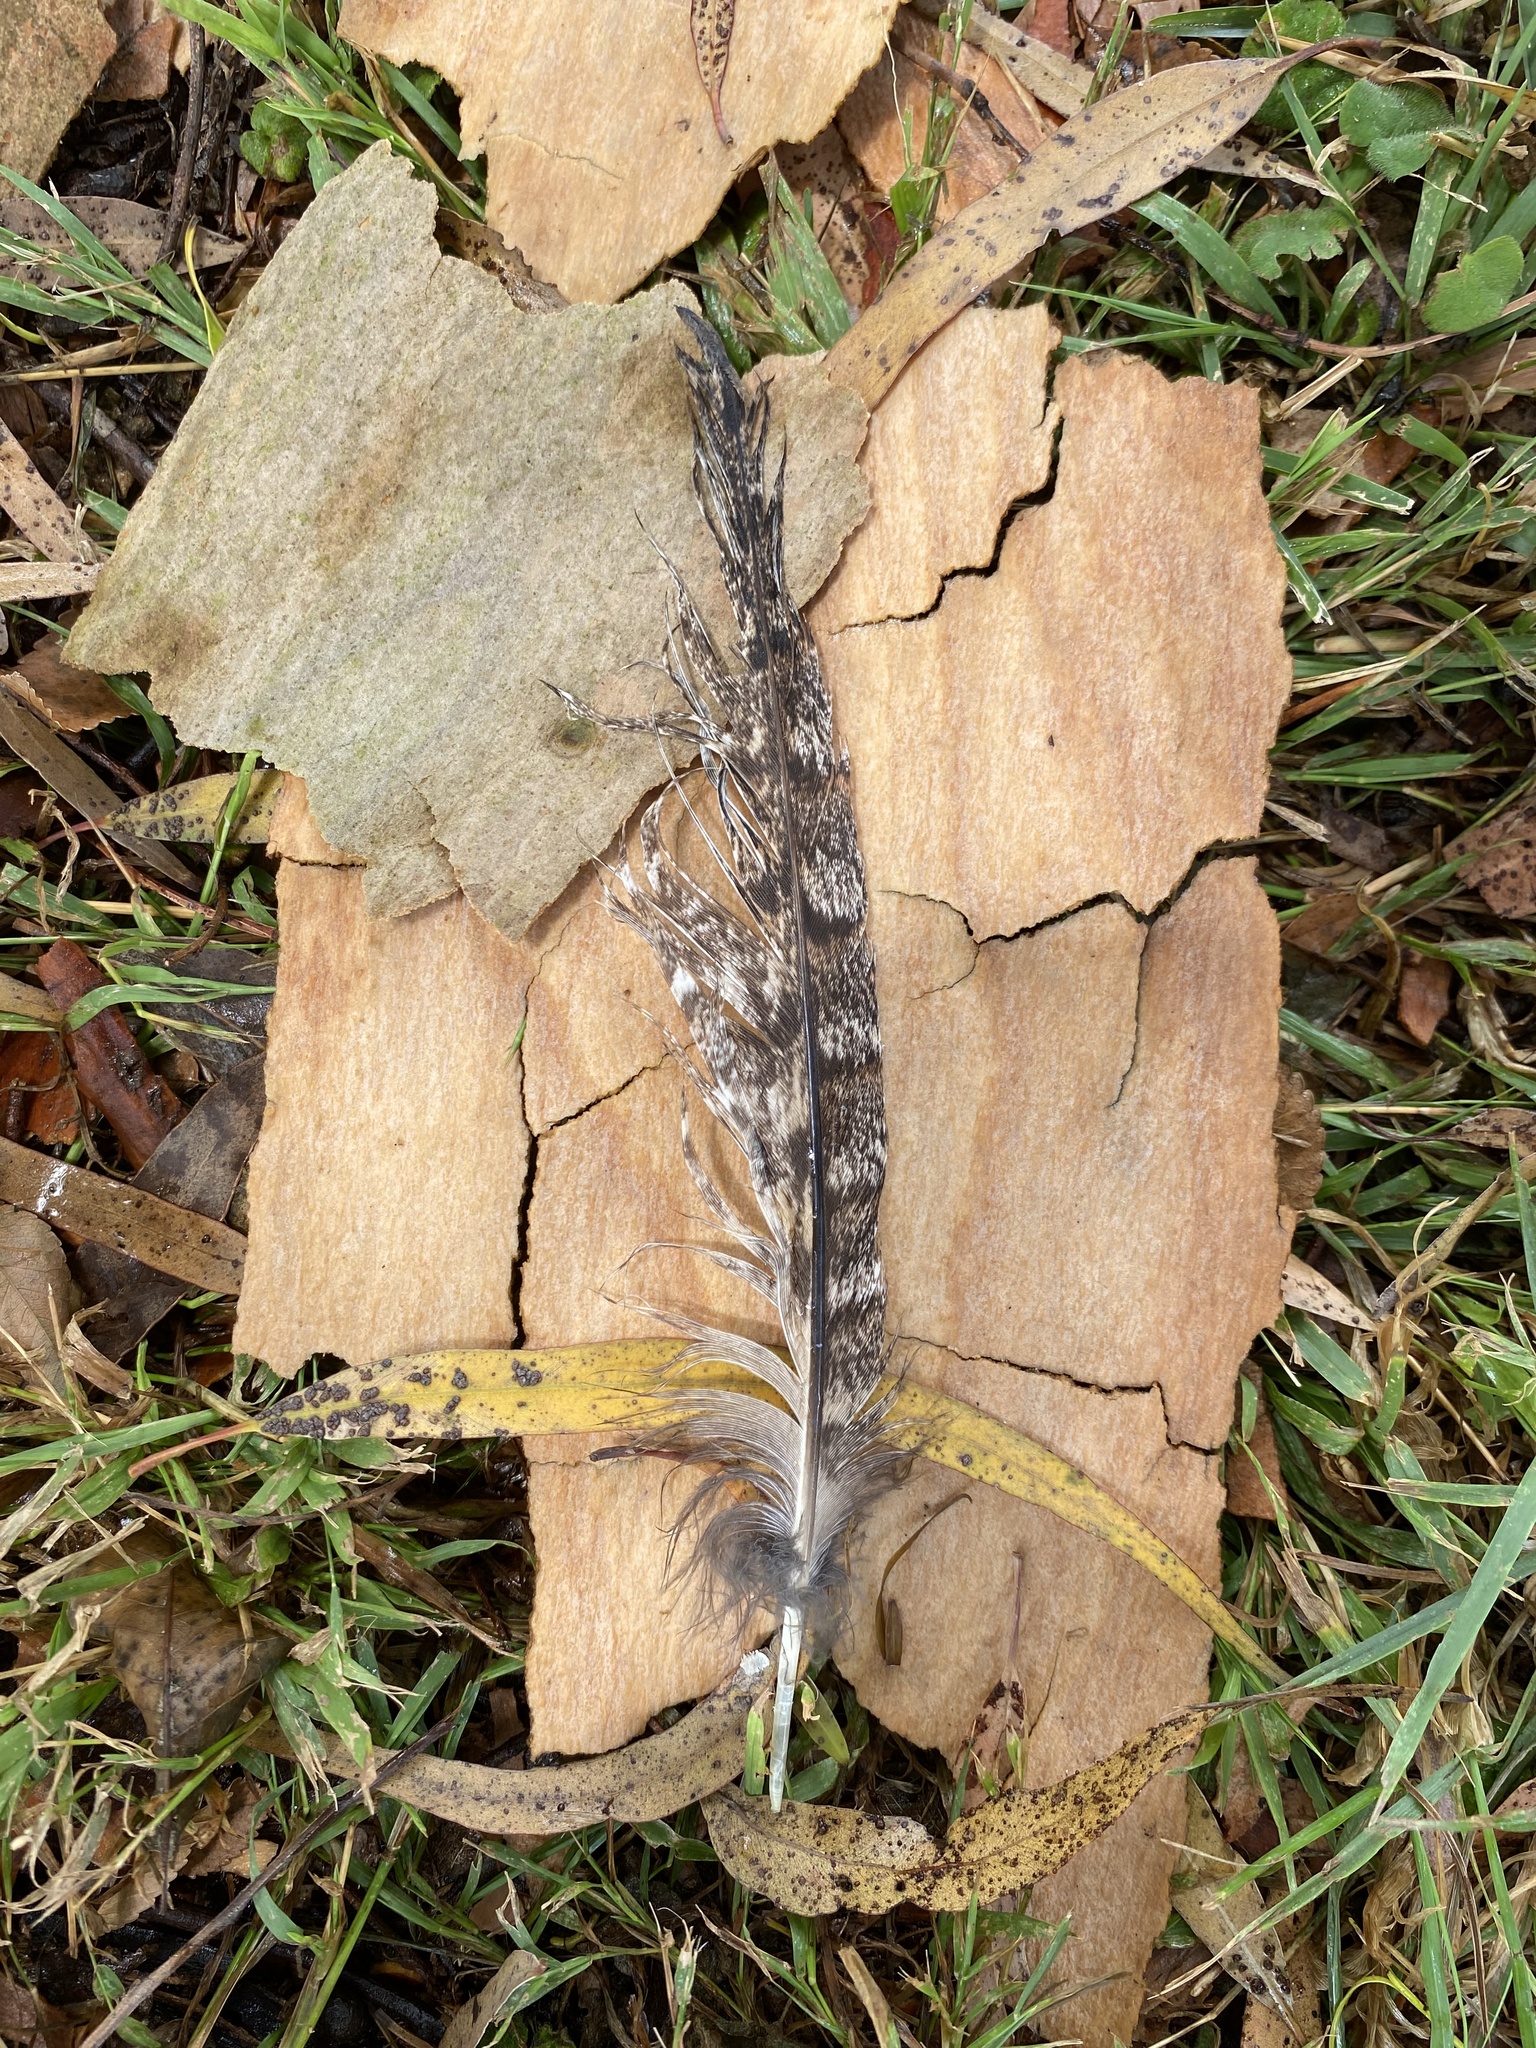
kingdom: Animalia
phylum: Chordata
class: Aves
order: Caprimulgiformes
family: Podargidae
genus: Podargus
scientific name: Podargus strigoides
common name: Tawny frogmouth
